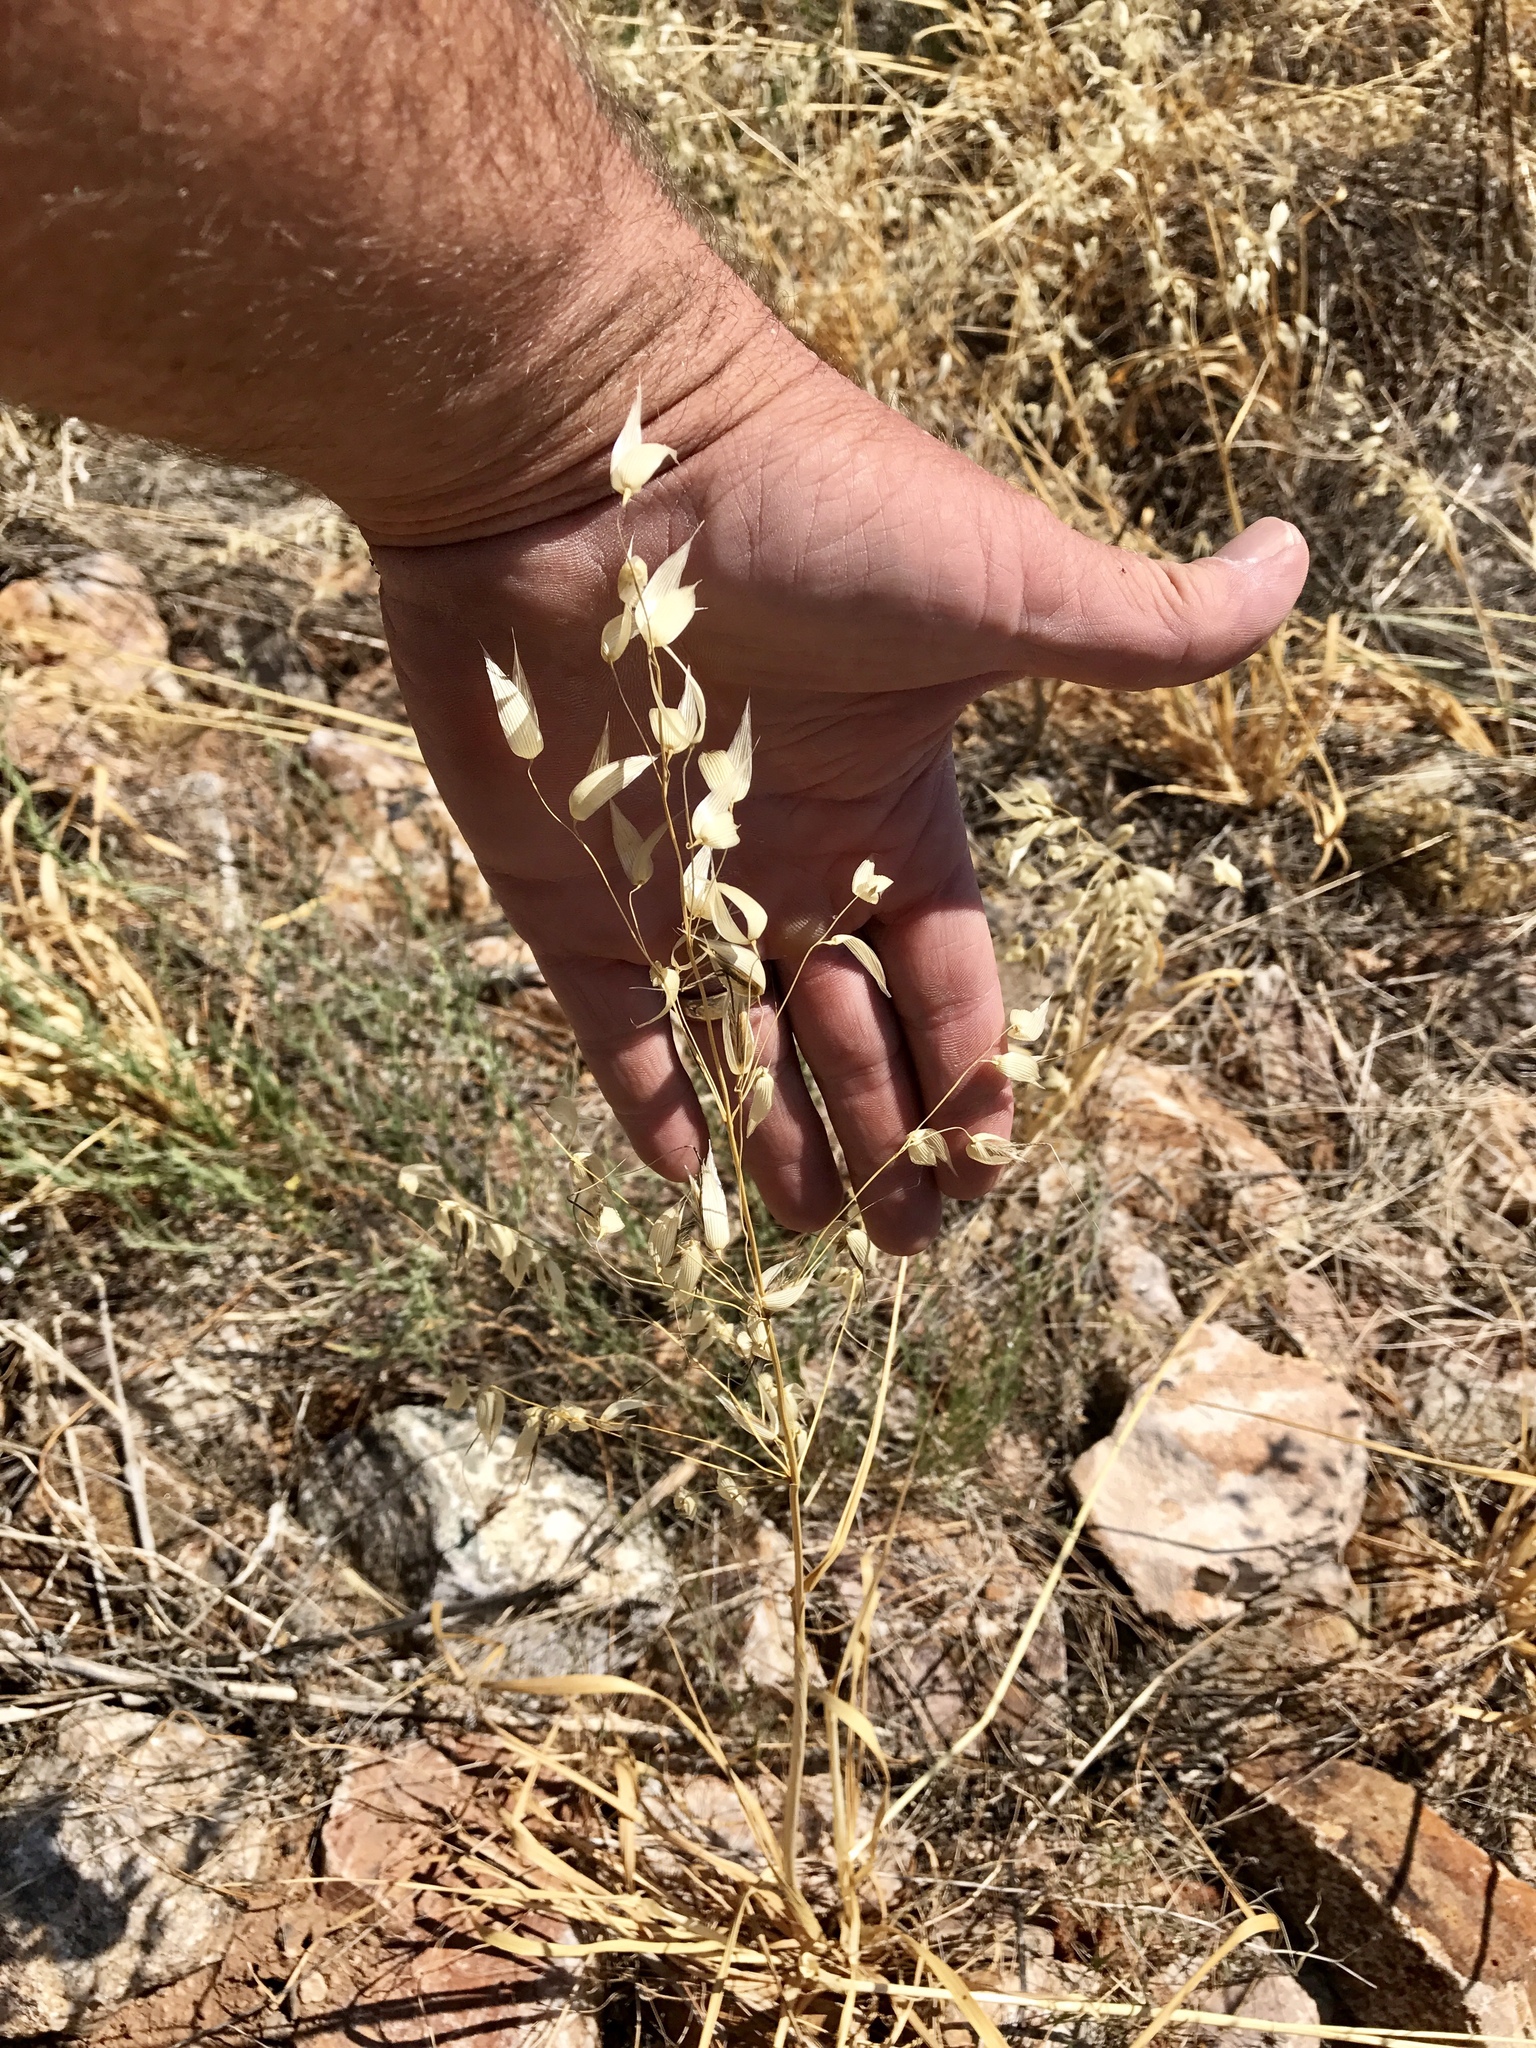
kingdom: Plantae
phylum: Tracheophyta
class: Liliopsida
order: Poales
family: Poaceae
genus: Avena
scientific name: Avena fatua
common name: Wild oat
